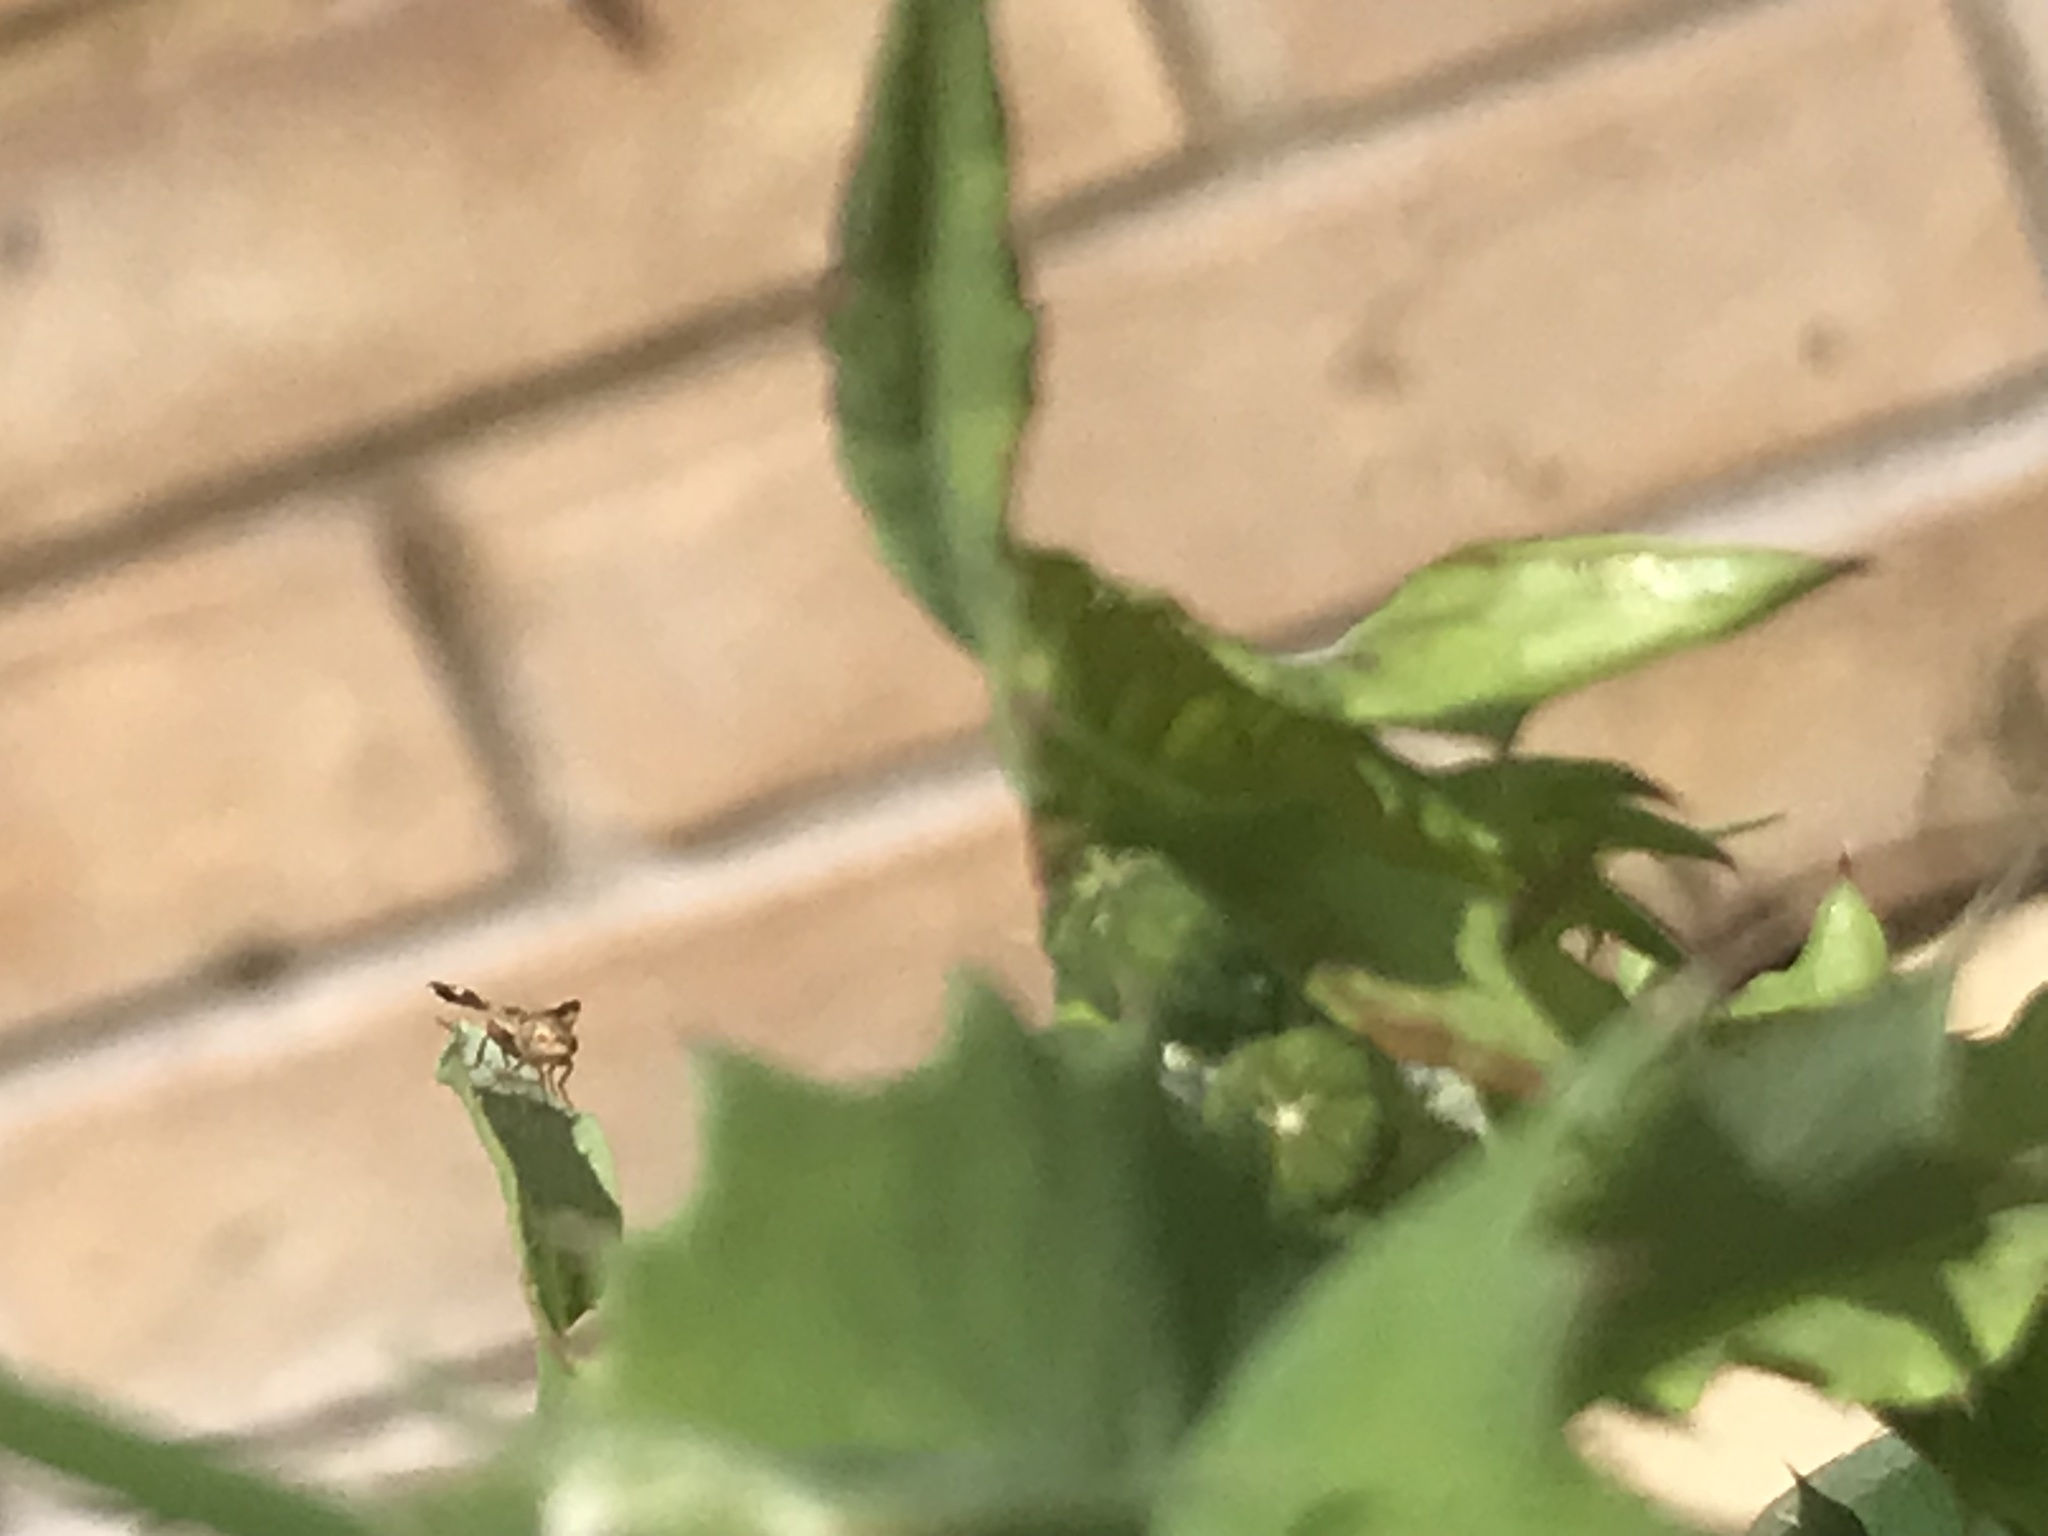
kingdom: Animalia
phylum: Arthropoda
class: Insecta
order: Diptera
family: Tephritidae
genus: Tephritis
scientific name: Tephritis formosa
